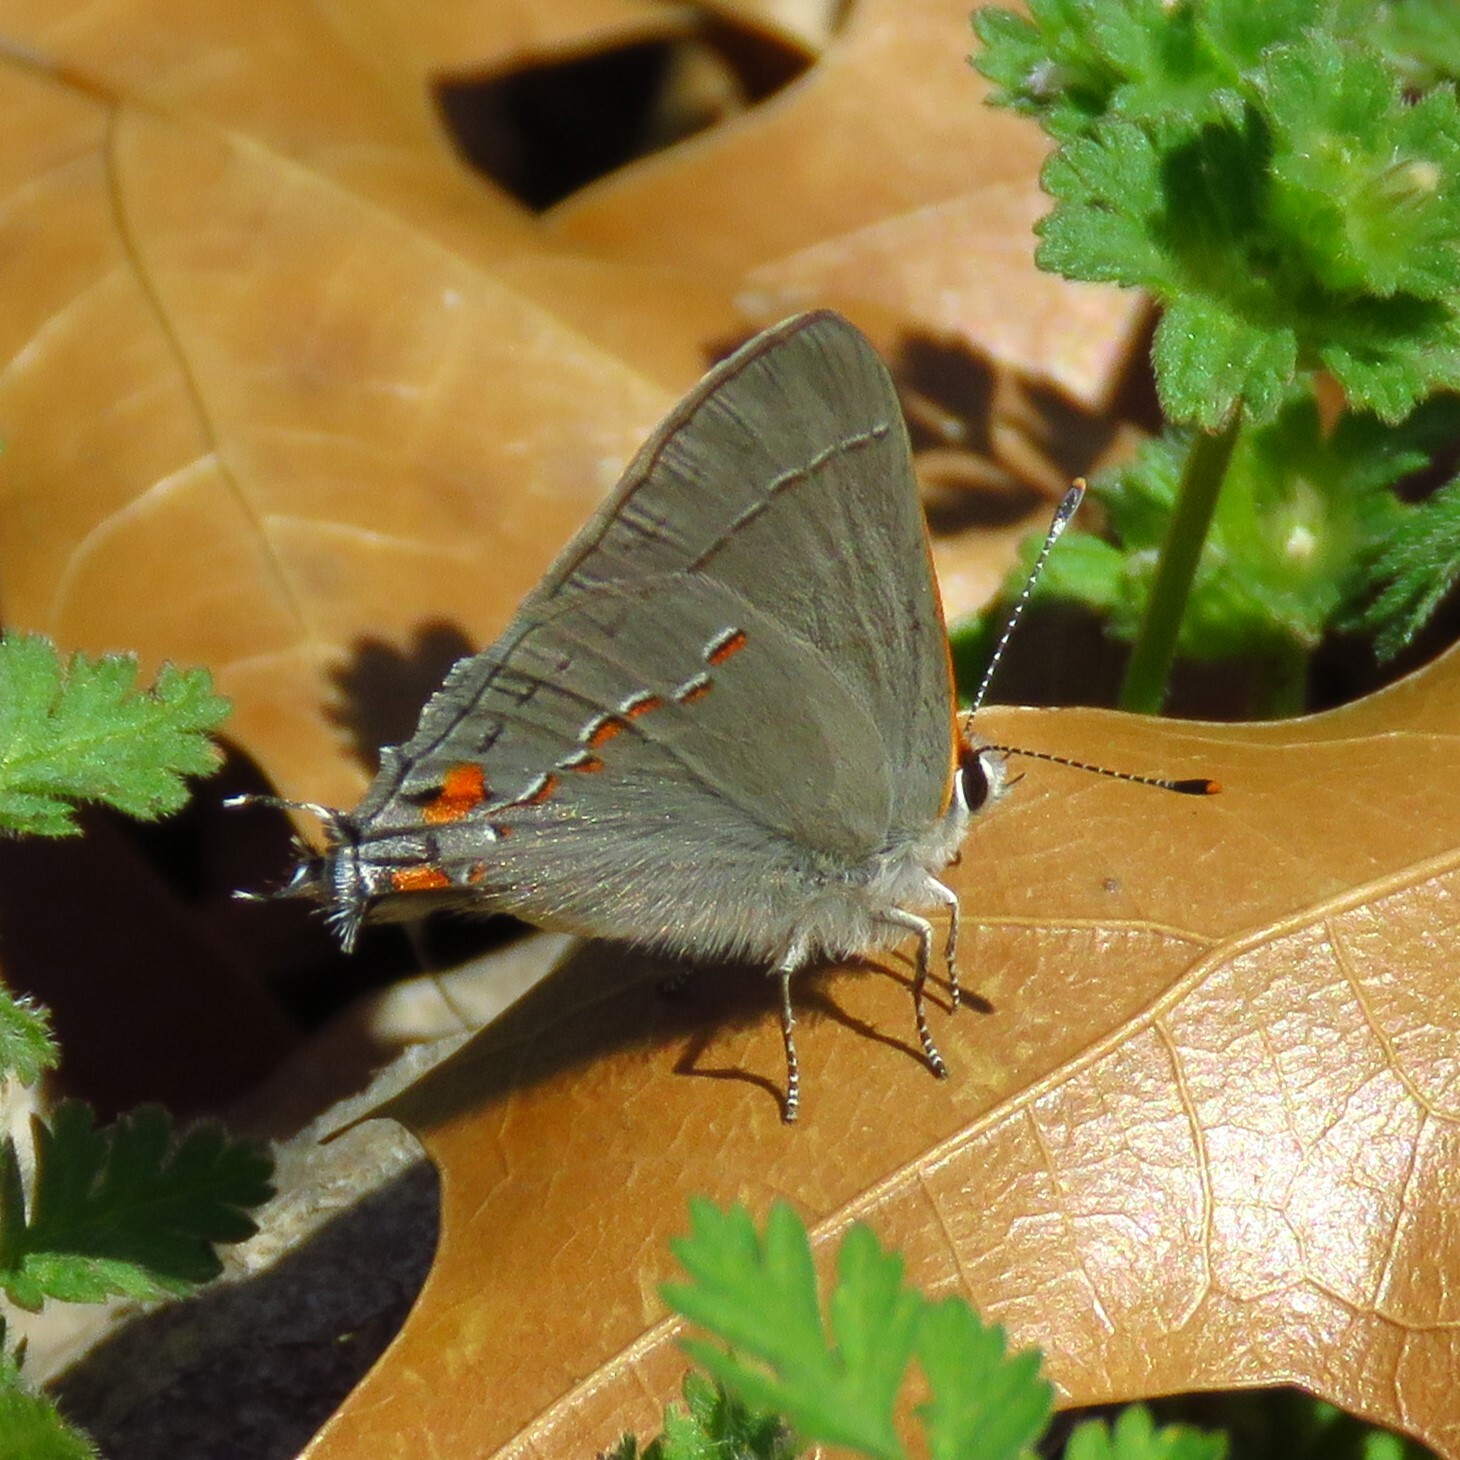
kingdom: Animalia
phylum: Arthropoda
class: Insecta
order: Lepidoptera
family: Lycaenidae
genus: Strymon
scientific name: Strymon melinus
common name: Gray hairstreak
